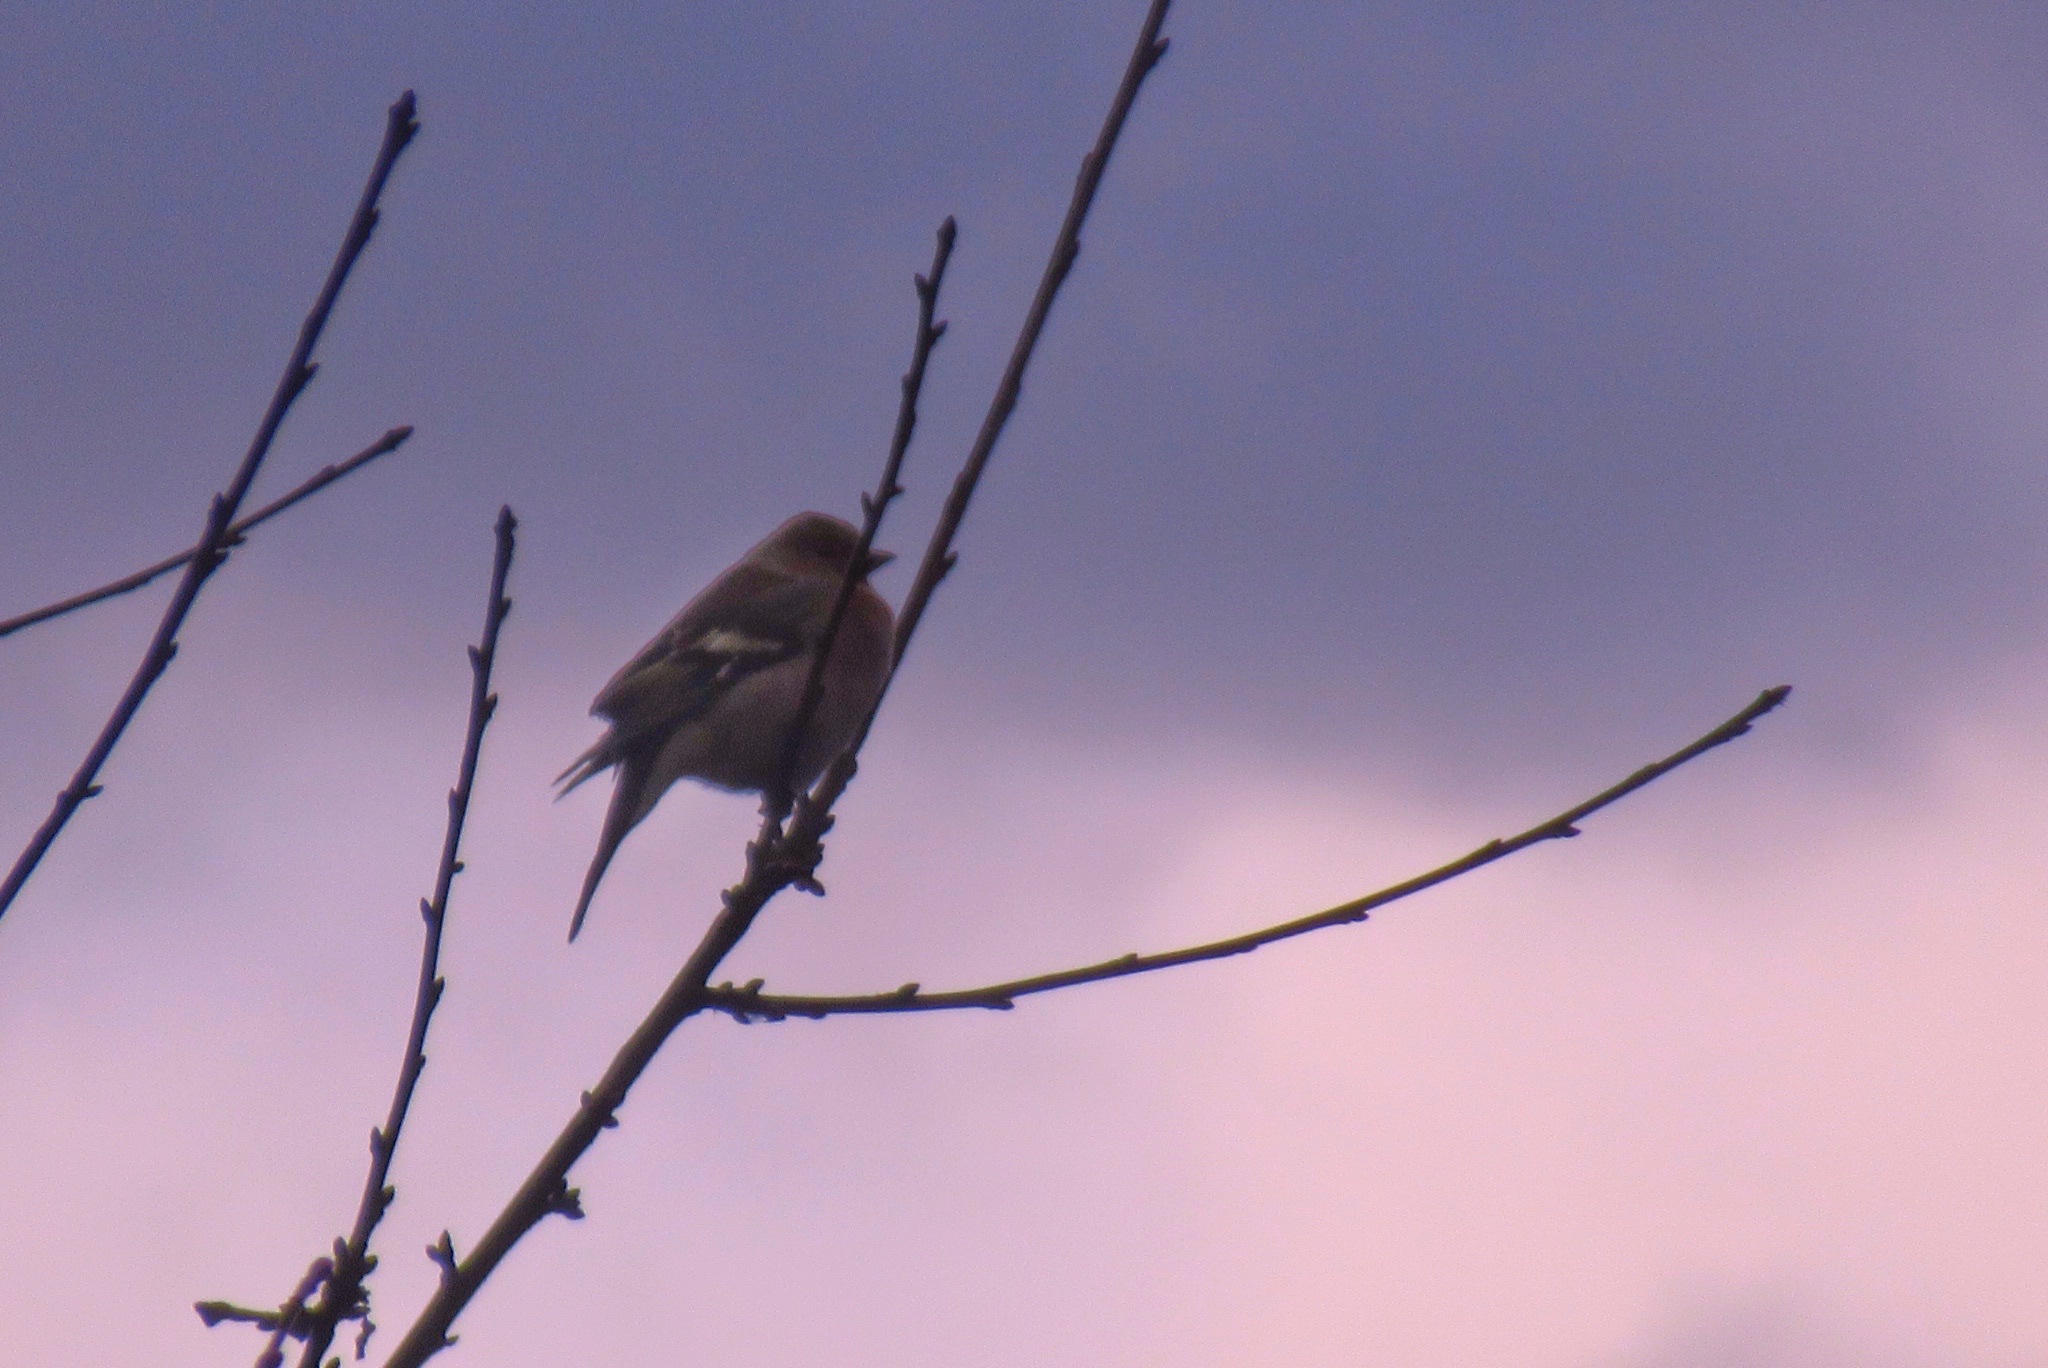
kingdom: Animalia
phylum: Chordata
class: Aves
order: Passeriformes
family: Fringillidae
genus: Fringilla
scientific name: Fringilla coelebs
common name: Common chaffinch
